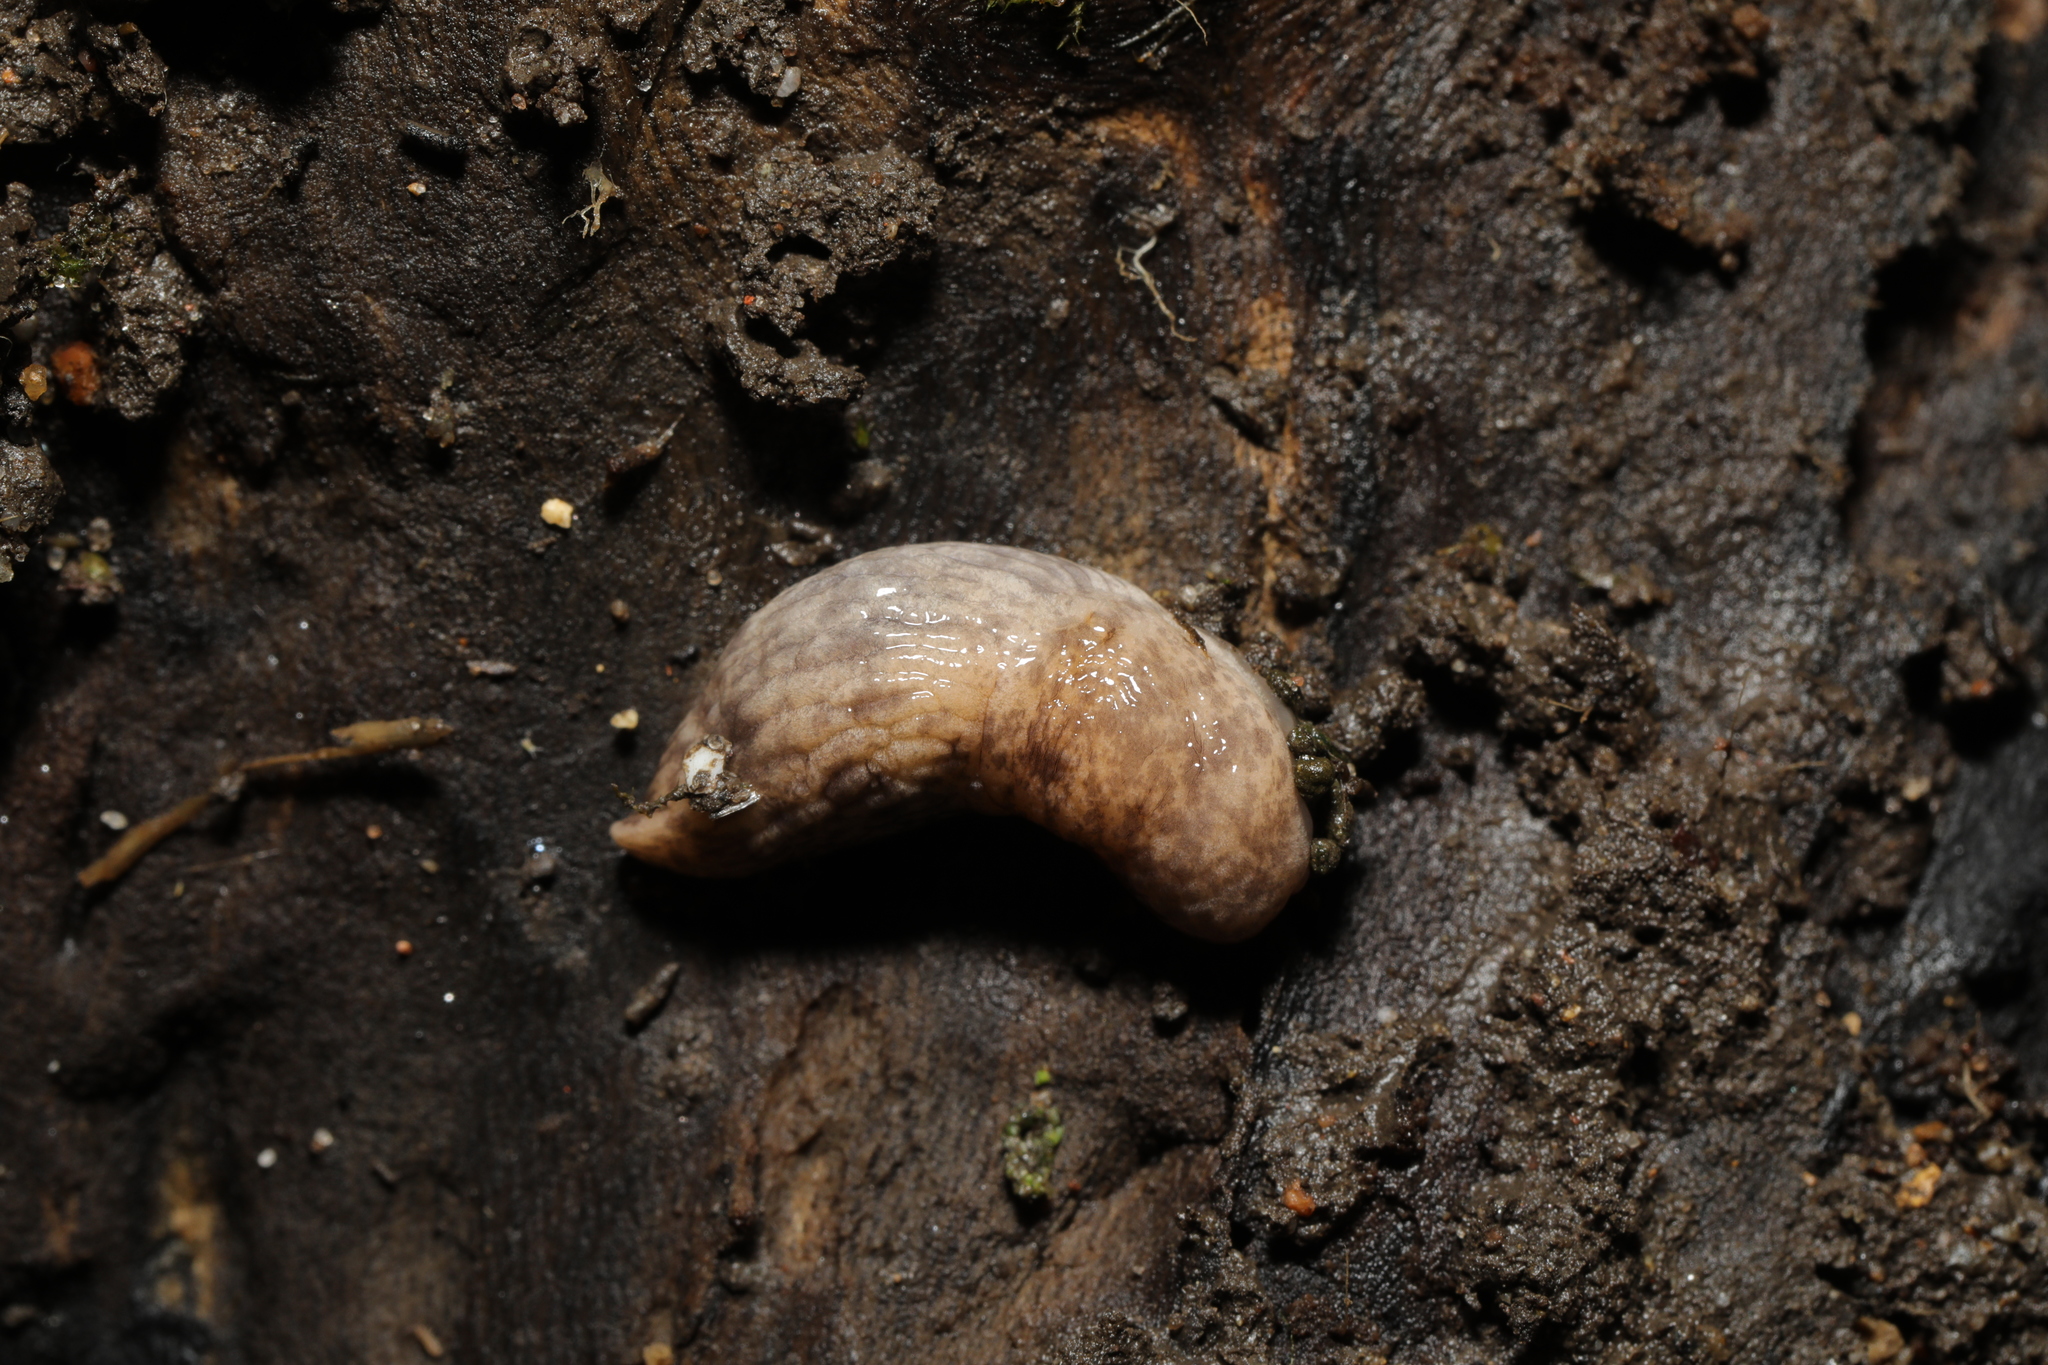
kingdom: Animalia
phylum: Mollusca
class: Gastropoda
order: Stylommatophora
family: Agriolimacidae
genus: Deroceras
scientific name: Deroceras reticulatum
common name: Gray field slug
